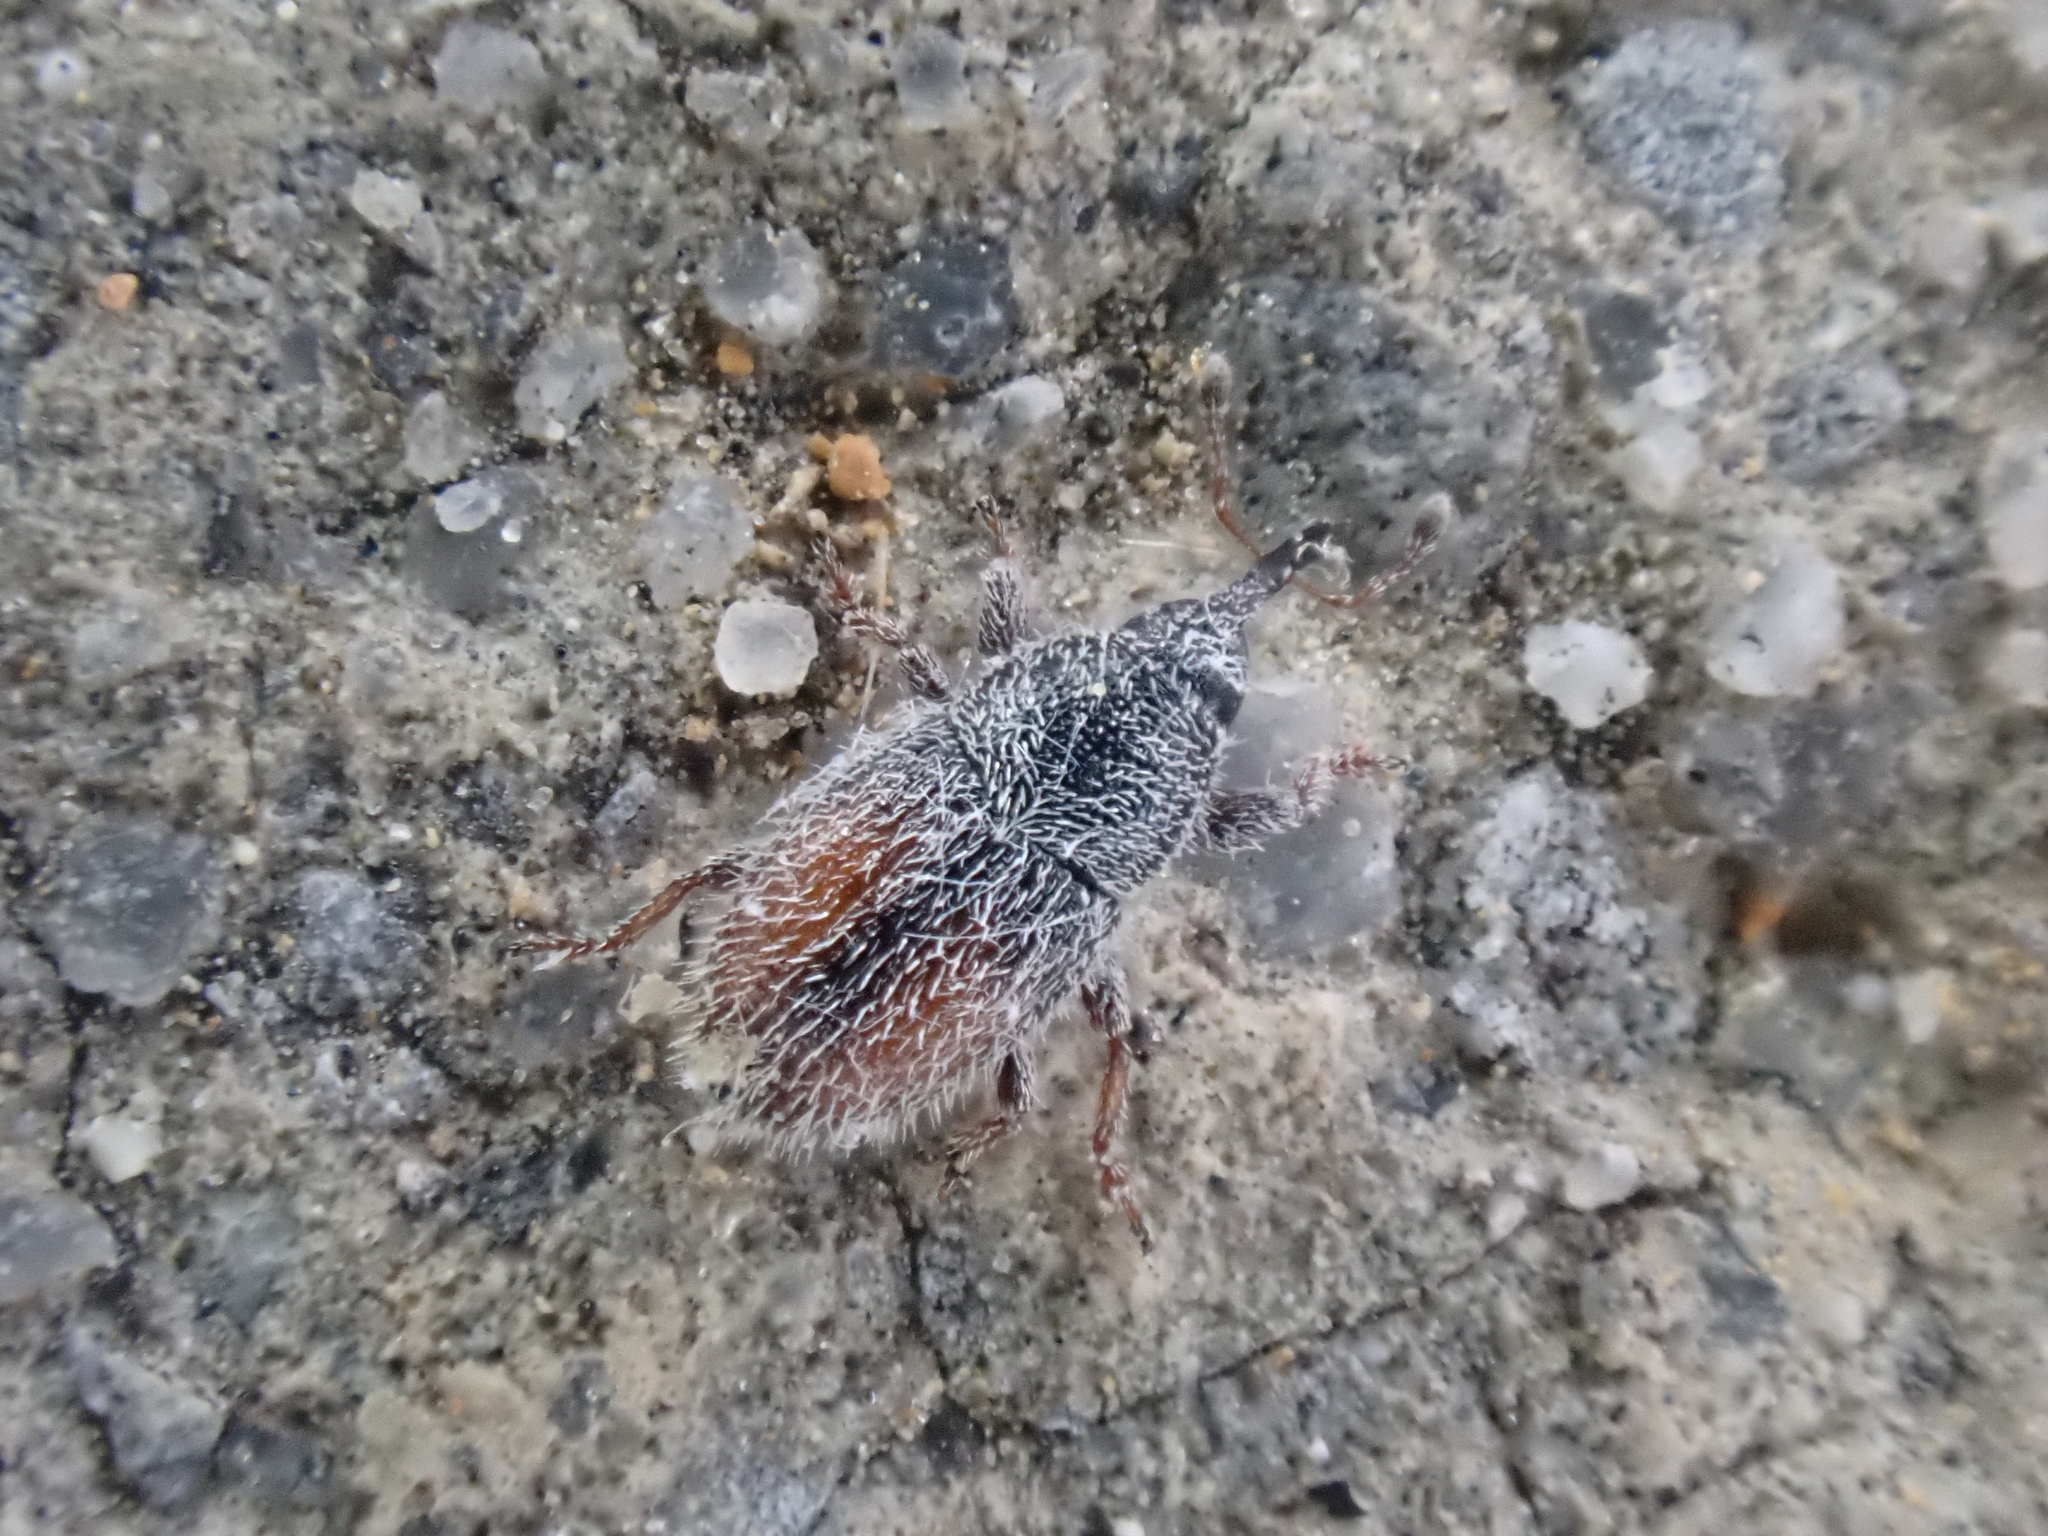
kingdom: Animalia
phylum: Arthropoda
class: Insecta
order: Coleoptera
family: Curculionidae
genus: Mecinus
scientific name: Mecinus pascuorum
